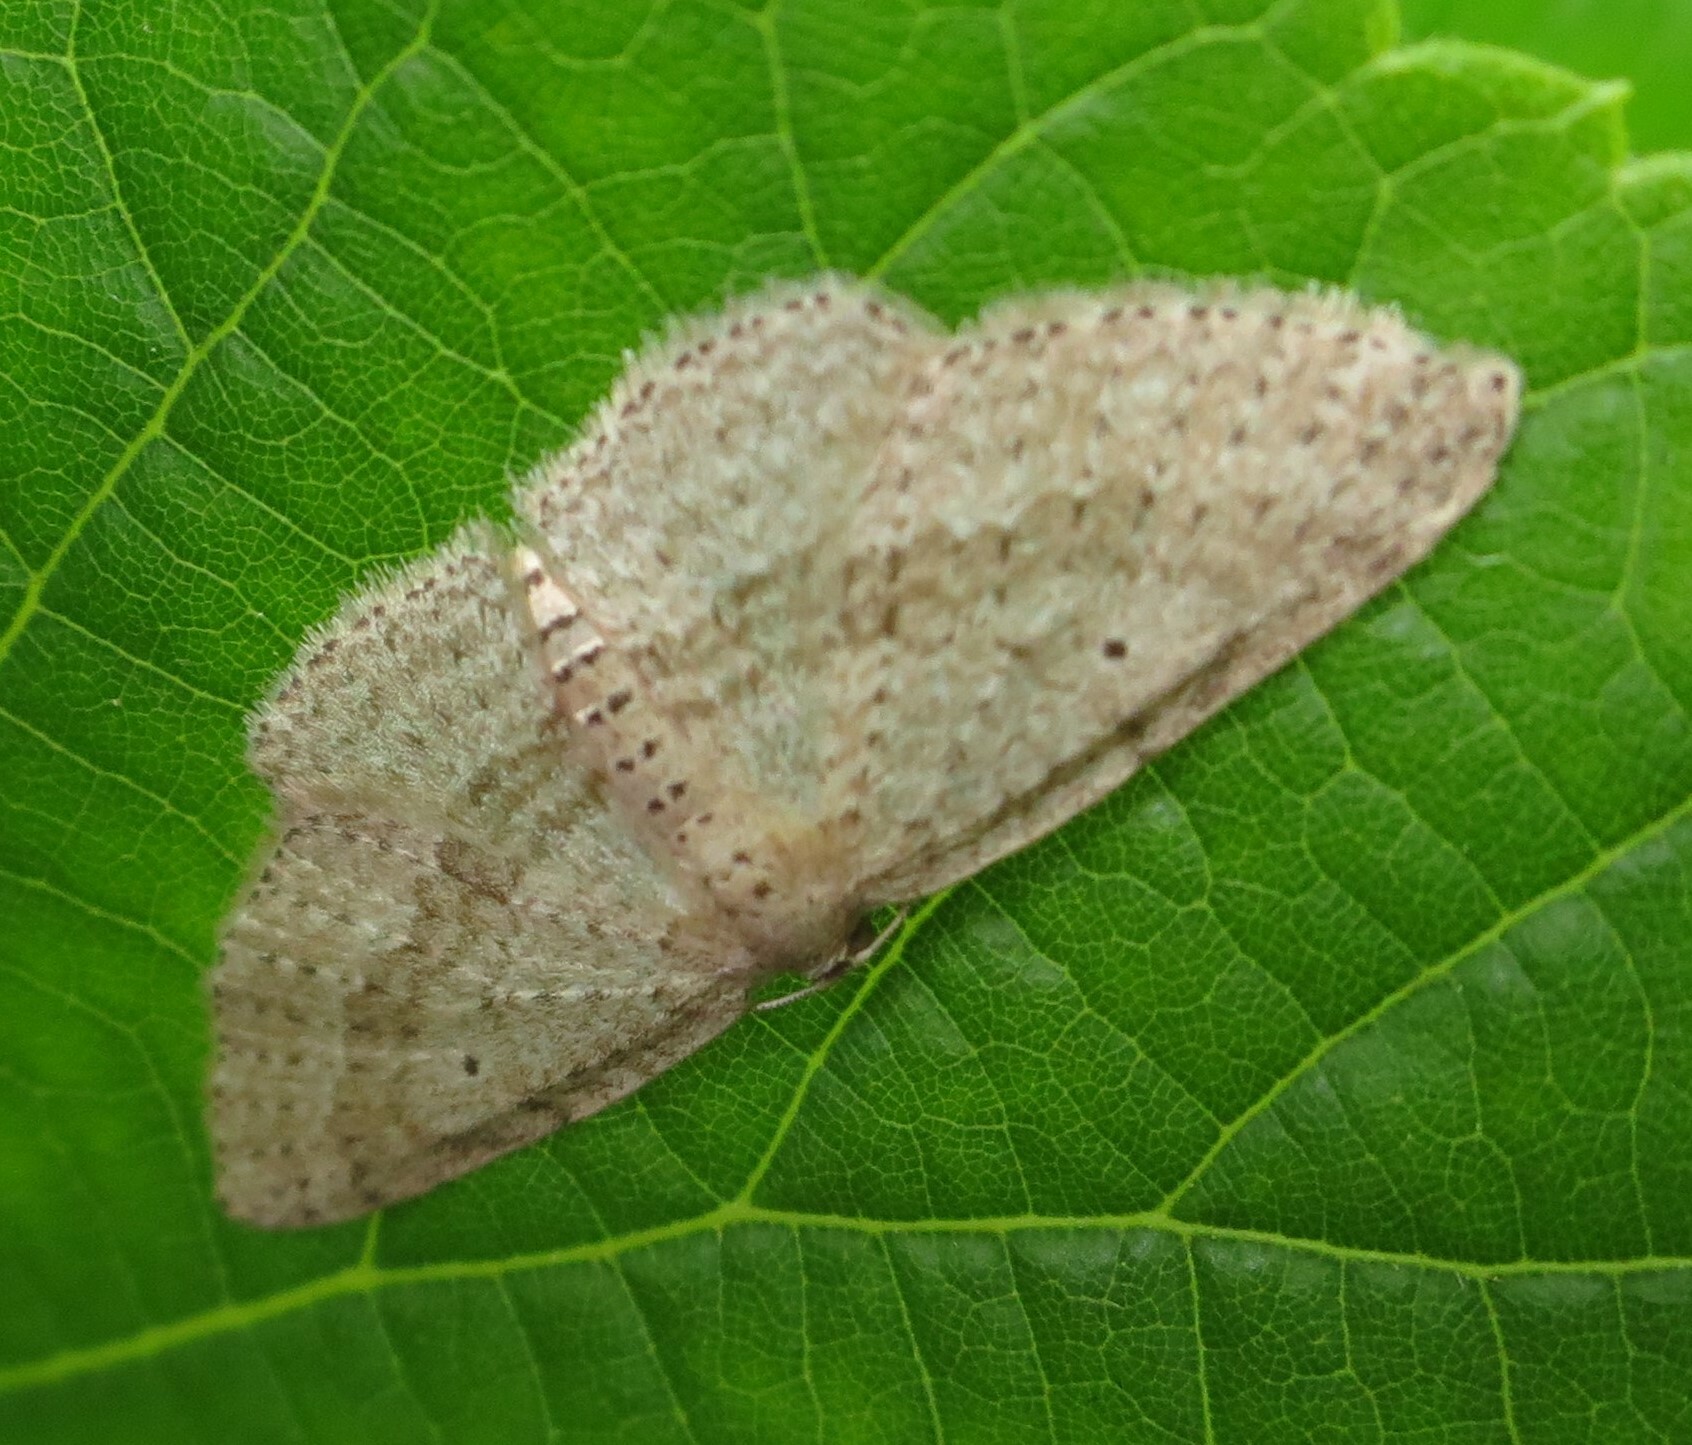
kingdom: Animalia
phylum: Arthropoda
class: Insecta
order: Lepidoptera
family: Geometridae
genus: Poecilasthena
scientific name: Poecilasthena schistaria
